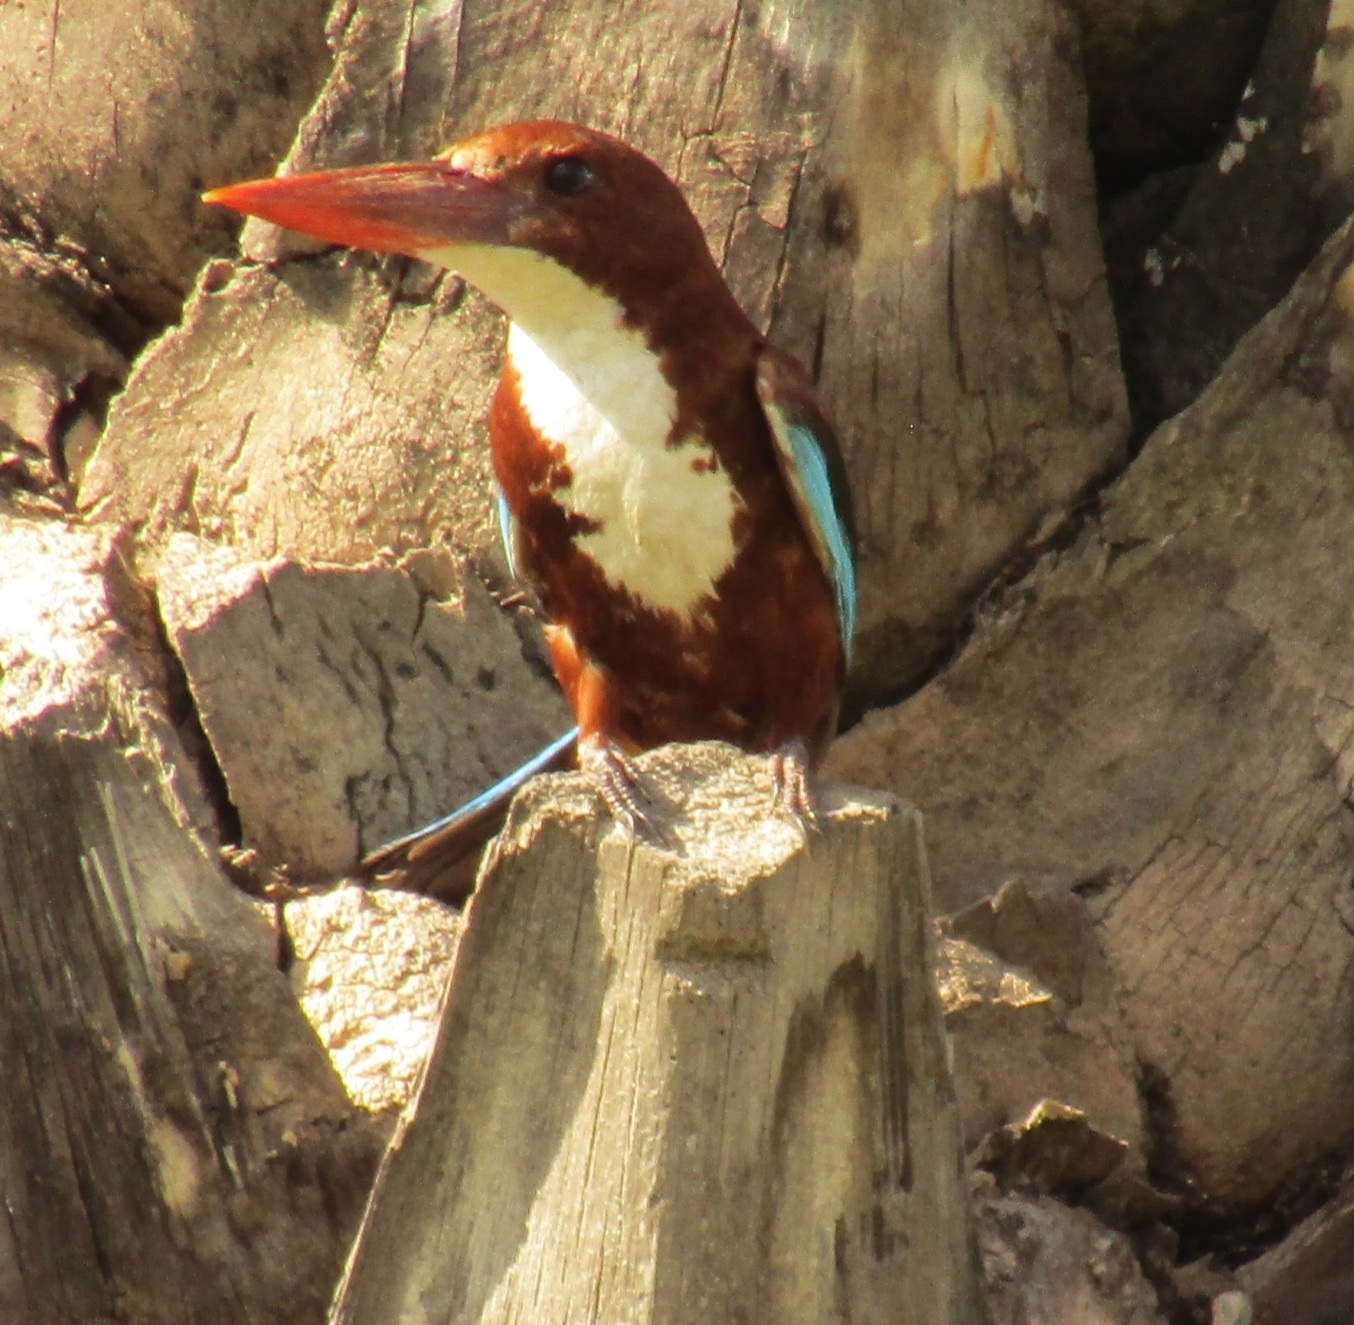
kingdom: Animalia
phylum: Chordata
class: Aves
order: Coraciiformes
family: Alcedinidae
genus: Halcyon
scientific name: Halcyon smyrnensis
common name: White-throated kingfisher
